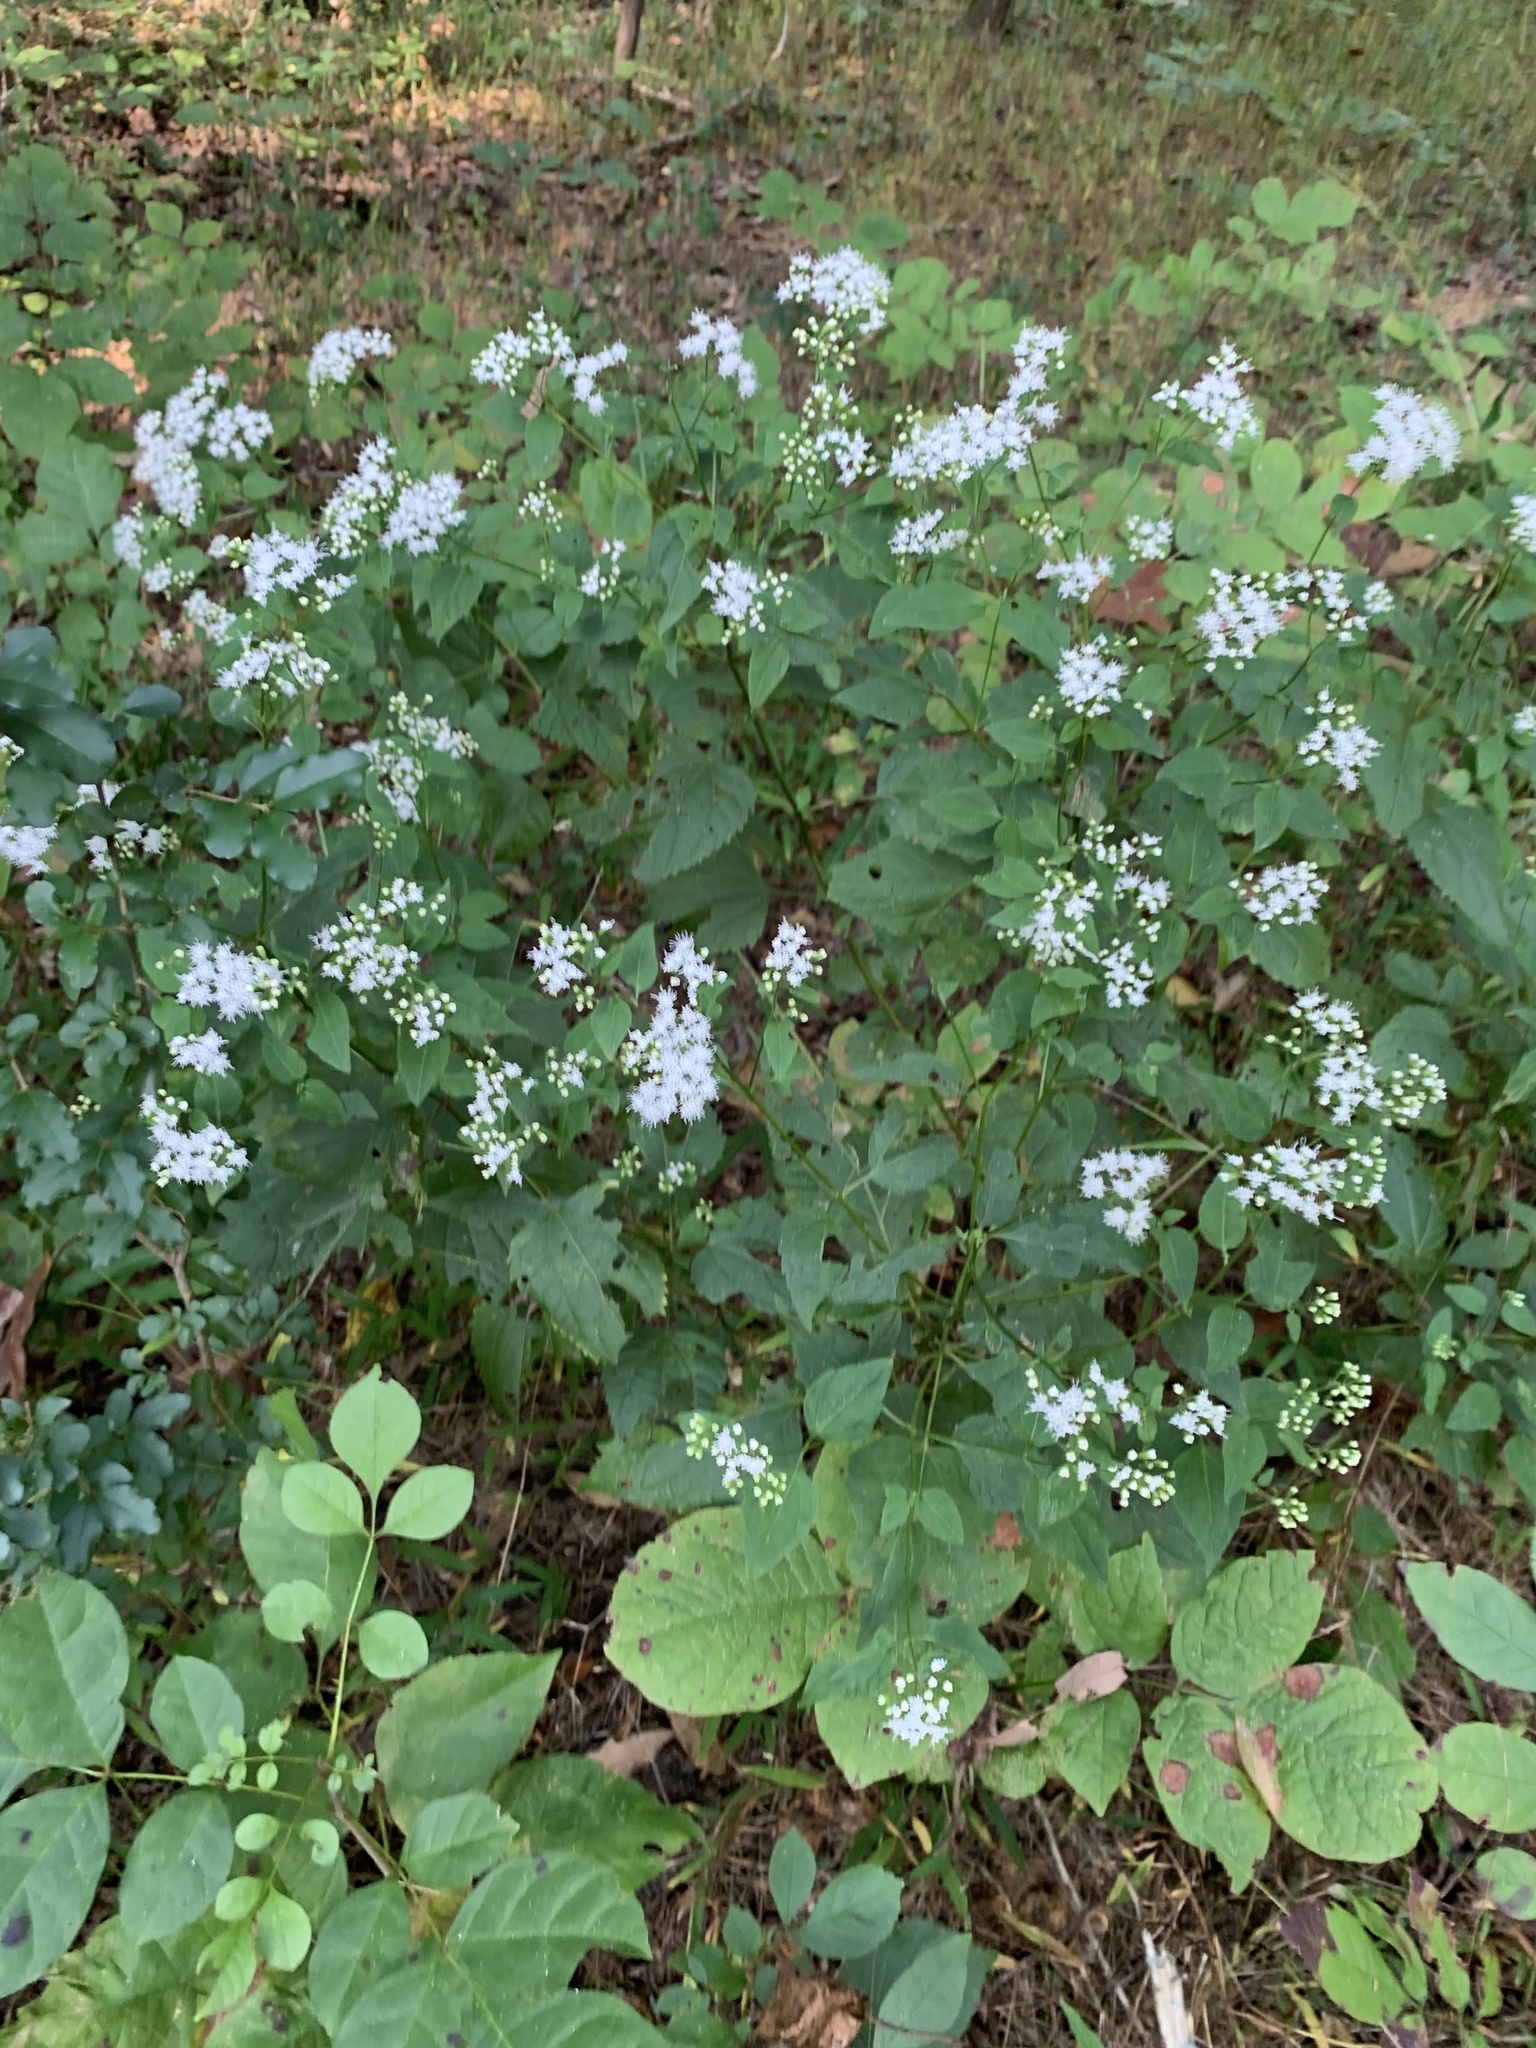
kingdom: Plantae
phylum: Tracheophyta
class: Magnoliopsida
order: Asterales
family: Asteraceae
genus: Ageratina
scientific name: Ageratina altissima
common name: White snakeroot
